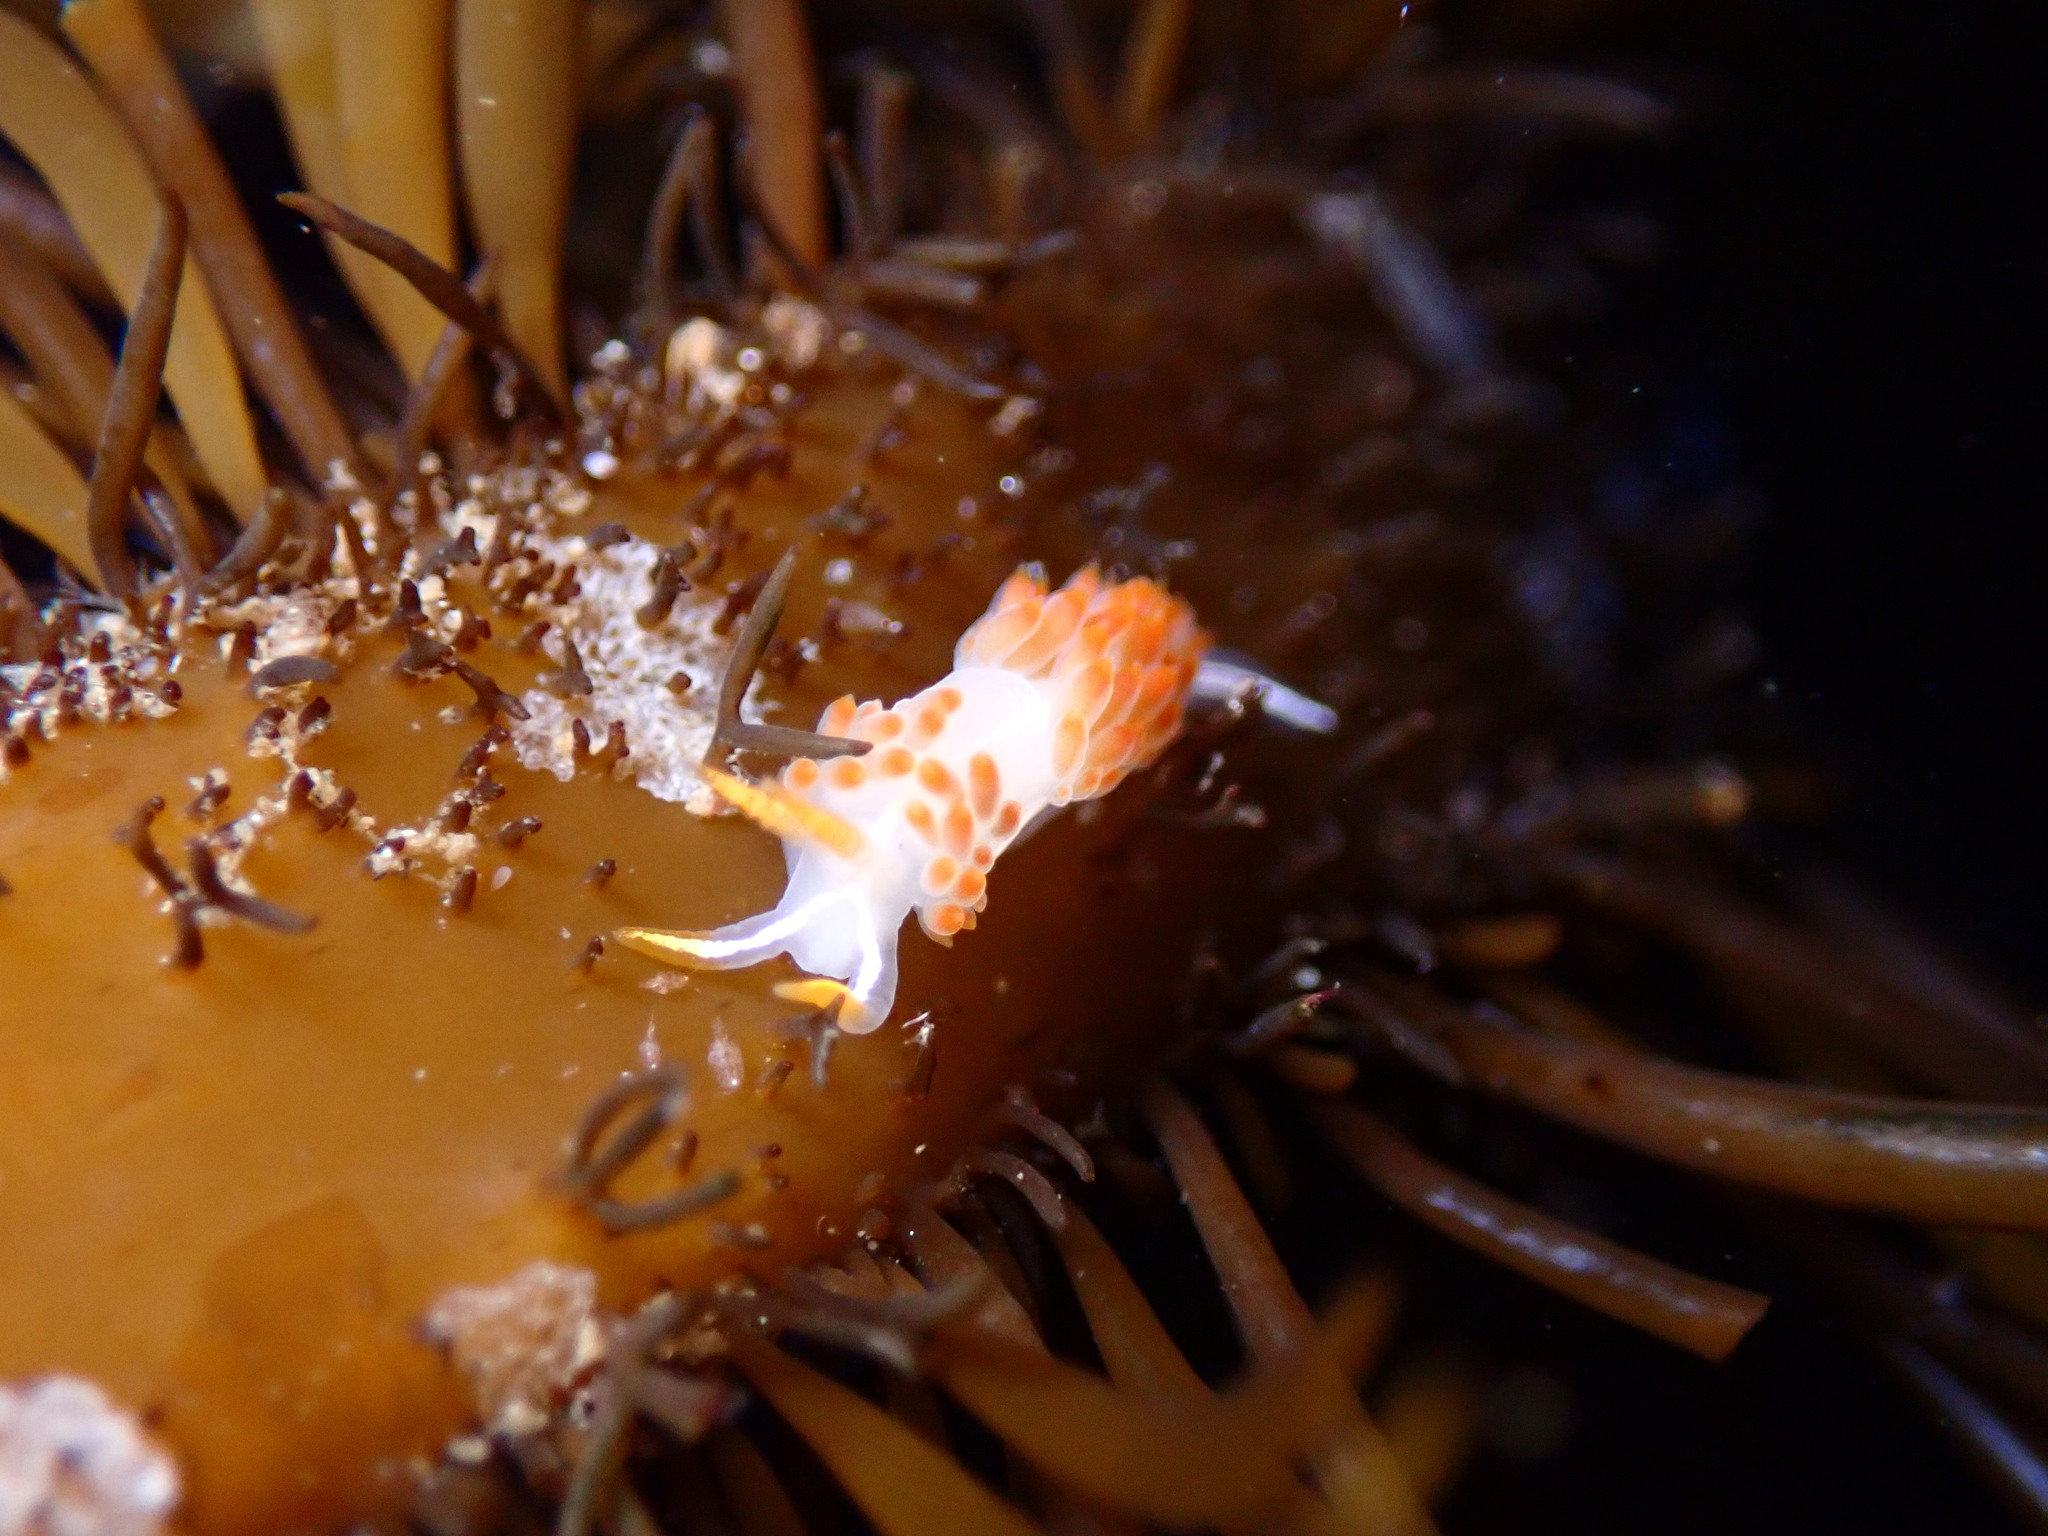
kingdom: Animalia
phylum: Mollusca
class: Gastropoda
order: Nudibranchia
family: Coryphellidae
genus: Coryphella
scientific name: Coryphella trilineata
